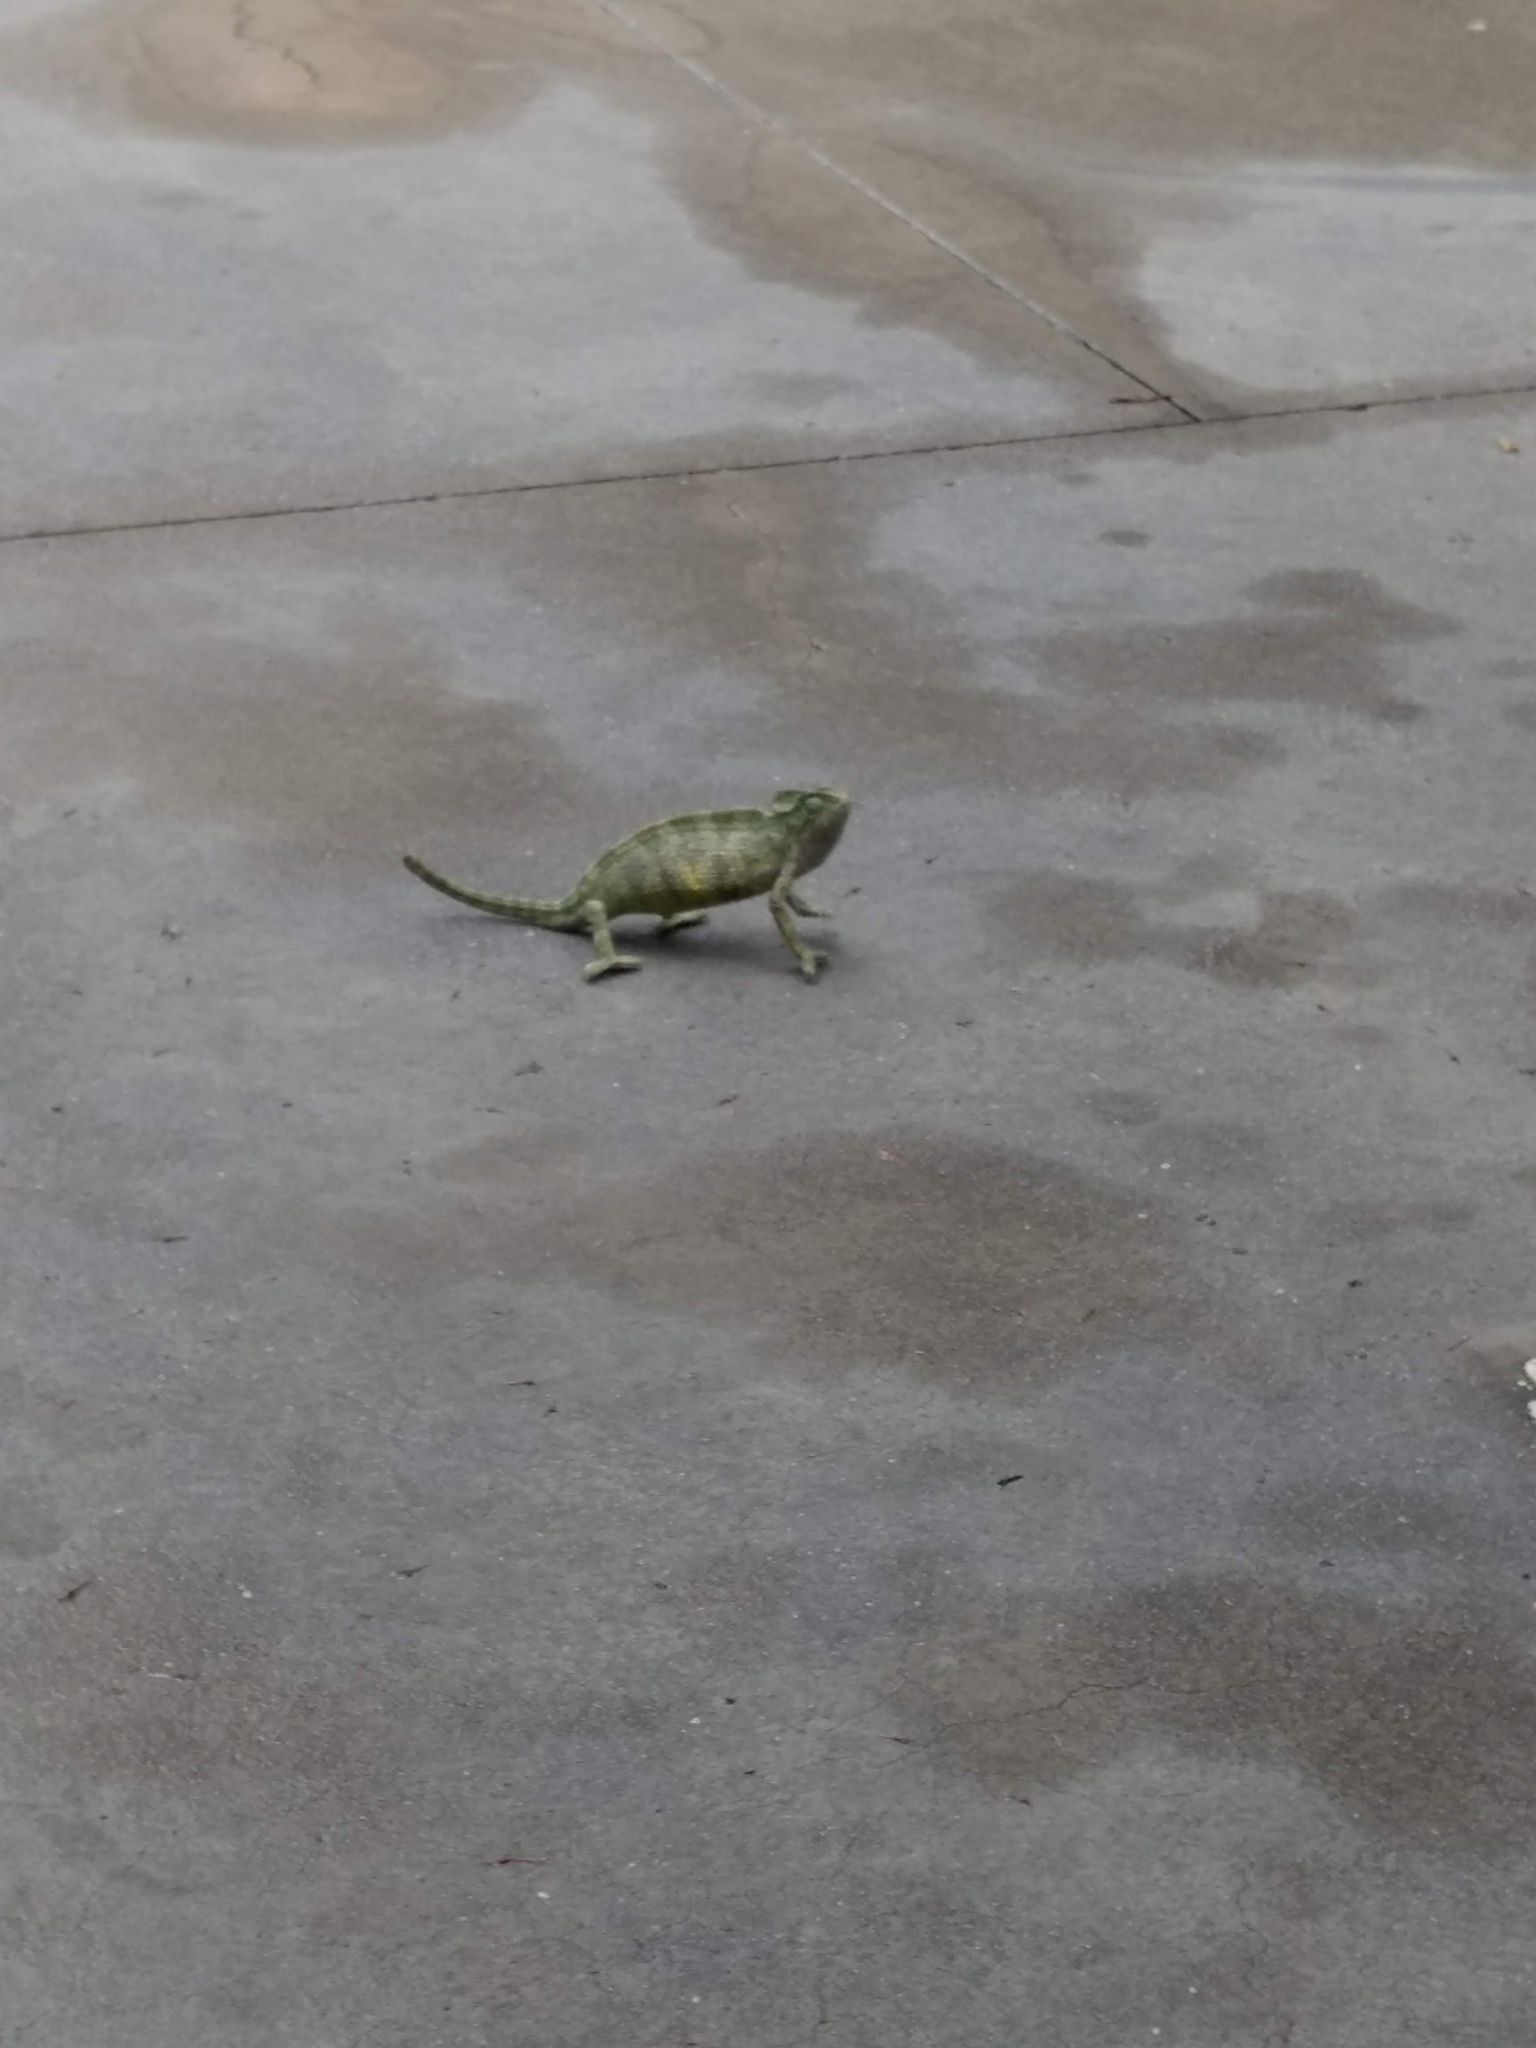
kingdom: Animalia
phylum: Chordata
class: Squamata
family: Chamaeleonidae
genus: Chamaeleo
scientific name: Chamaeleo zeylanicus
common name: Indian chameleon
